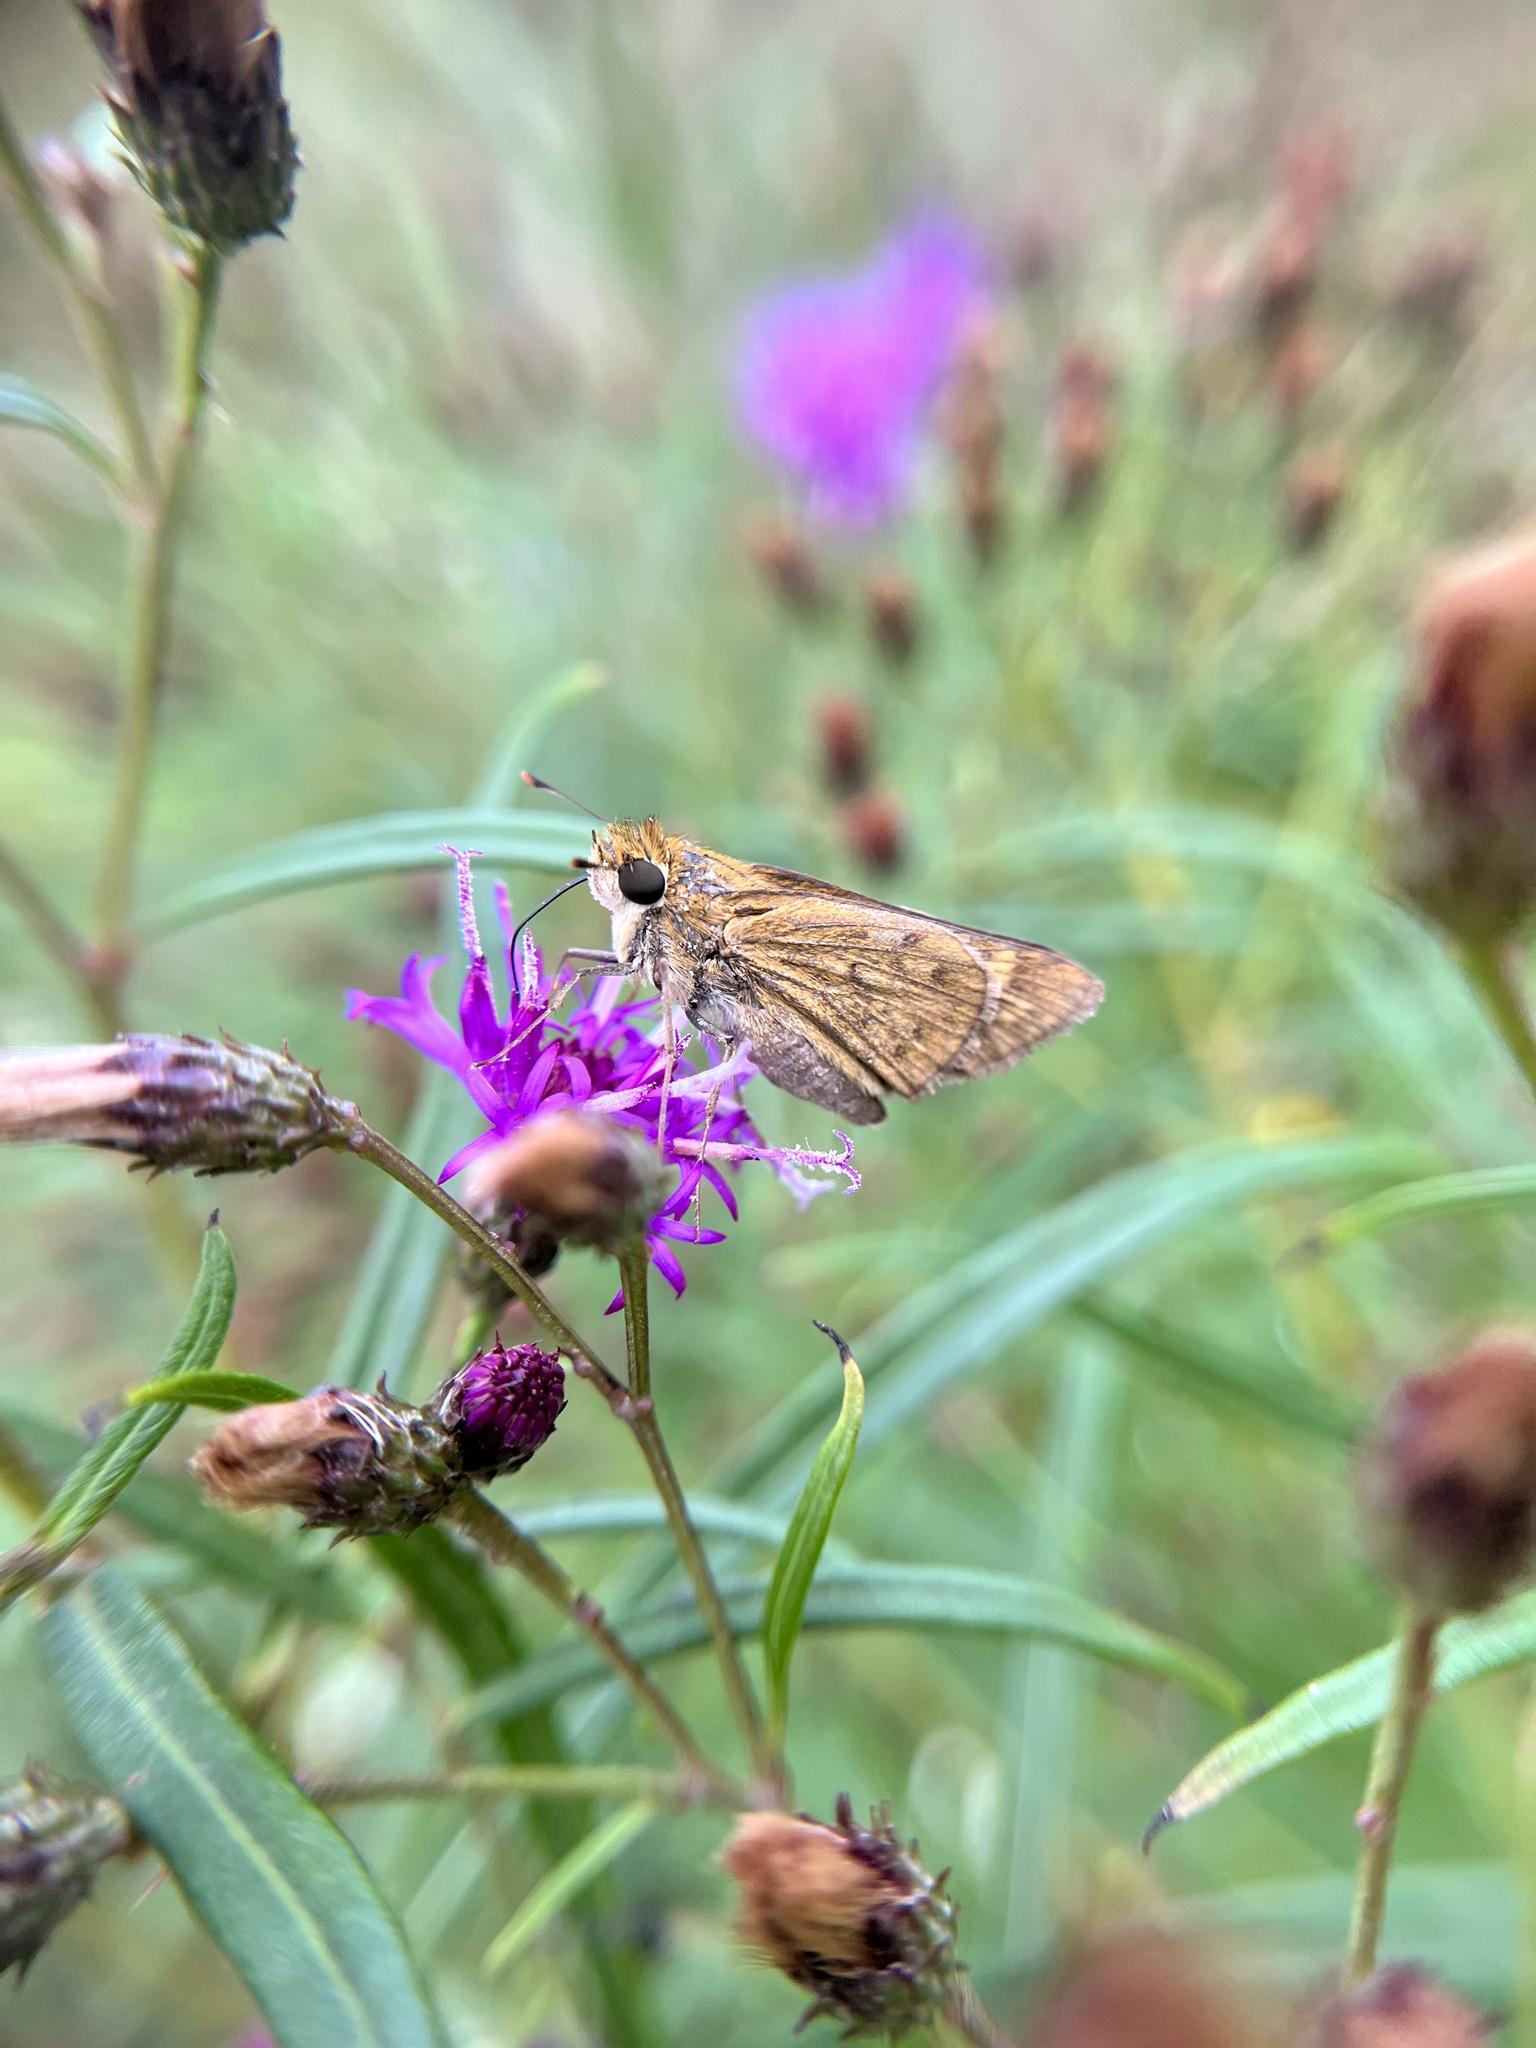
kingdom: Animalia
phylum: Arthropoda
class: Insecta
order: Lepidoptera
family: Hesperiidae
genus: Hylephila
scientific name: Hylephila phyleus
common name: Fiery skipper
